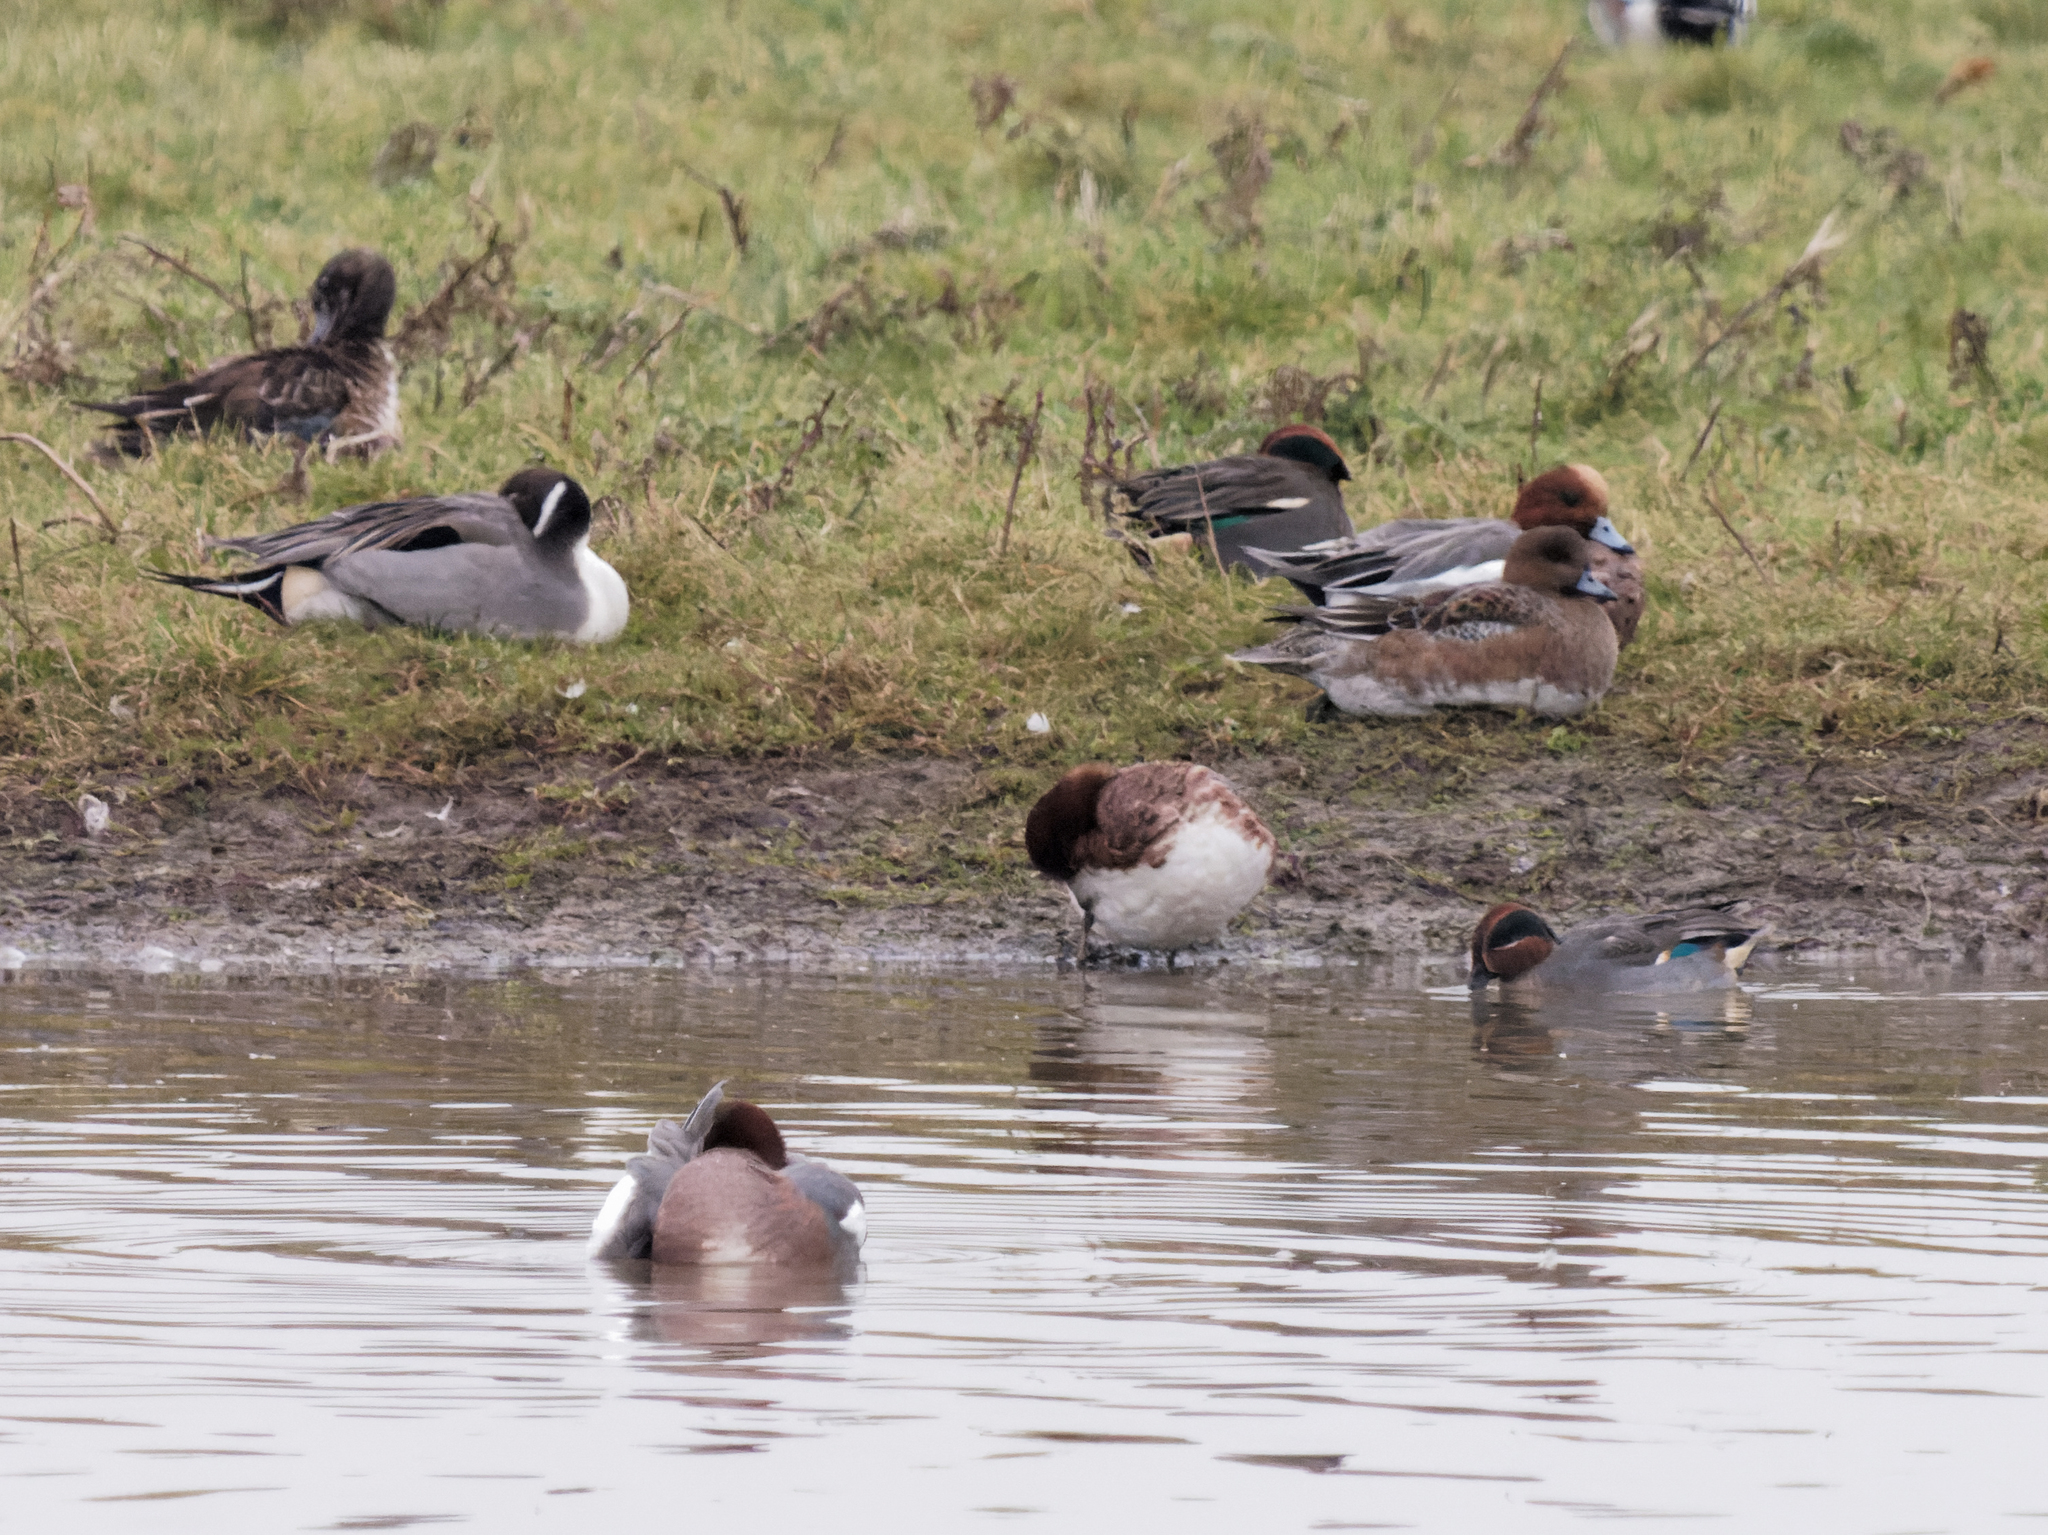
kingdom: Animalia
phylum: Chordata
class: Aves
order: Anseriformes
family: Anatidae
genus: Mareca
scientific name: Mareca penelope
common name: Eurasian wigeon
